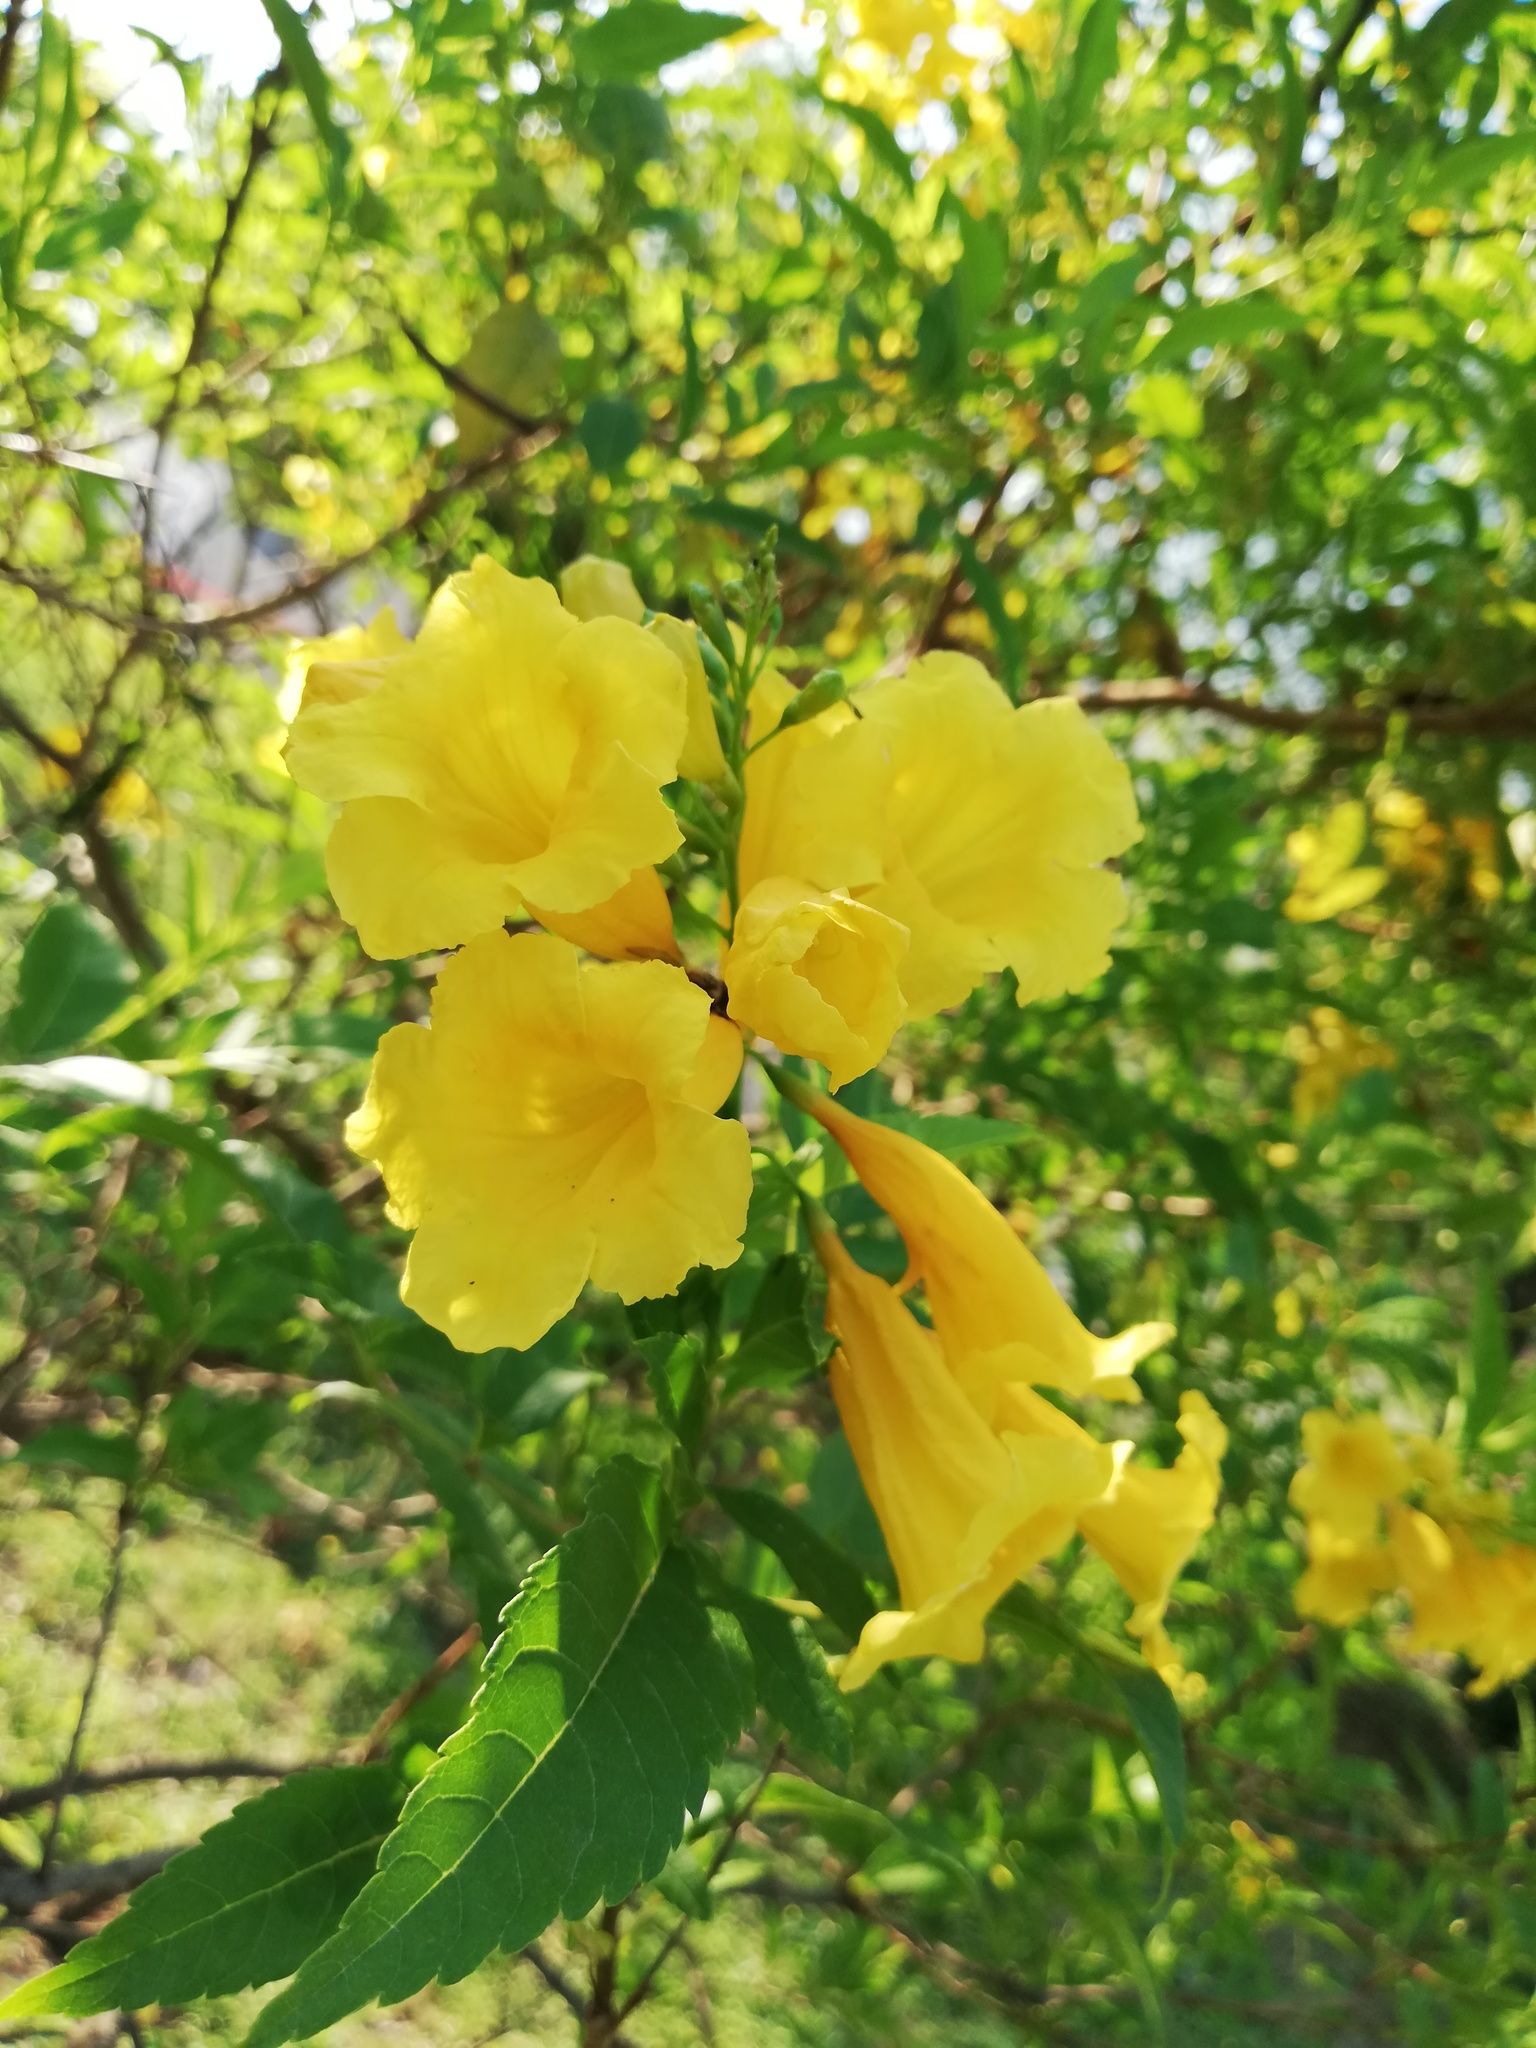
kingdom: Plantae
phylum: Tracheophyta
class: Magnoliopsida
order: Lamiales
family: Bignoniaceae
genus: Tecoma
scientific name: Tecoma stans
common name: Yellow trumpetbush
